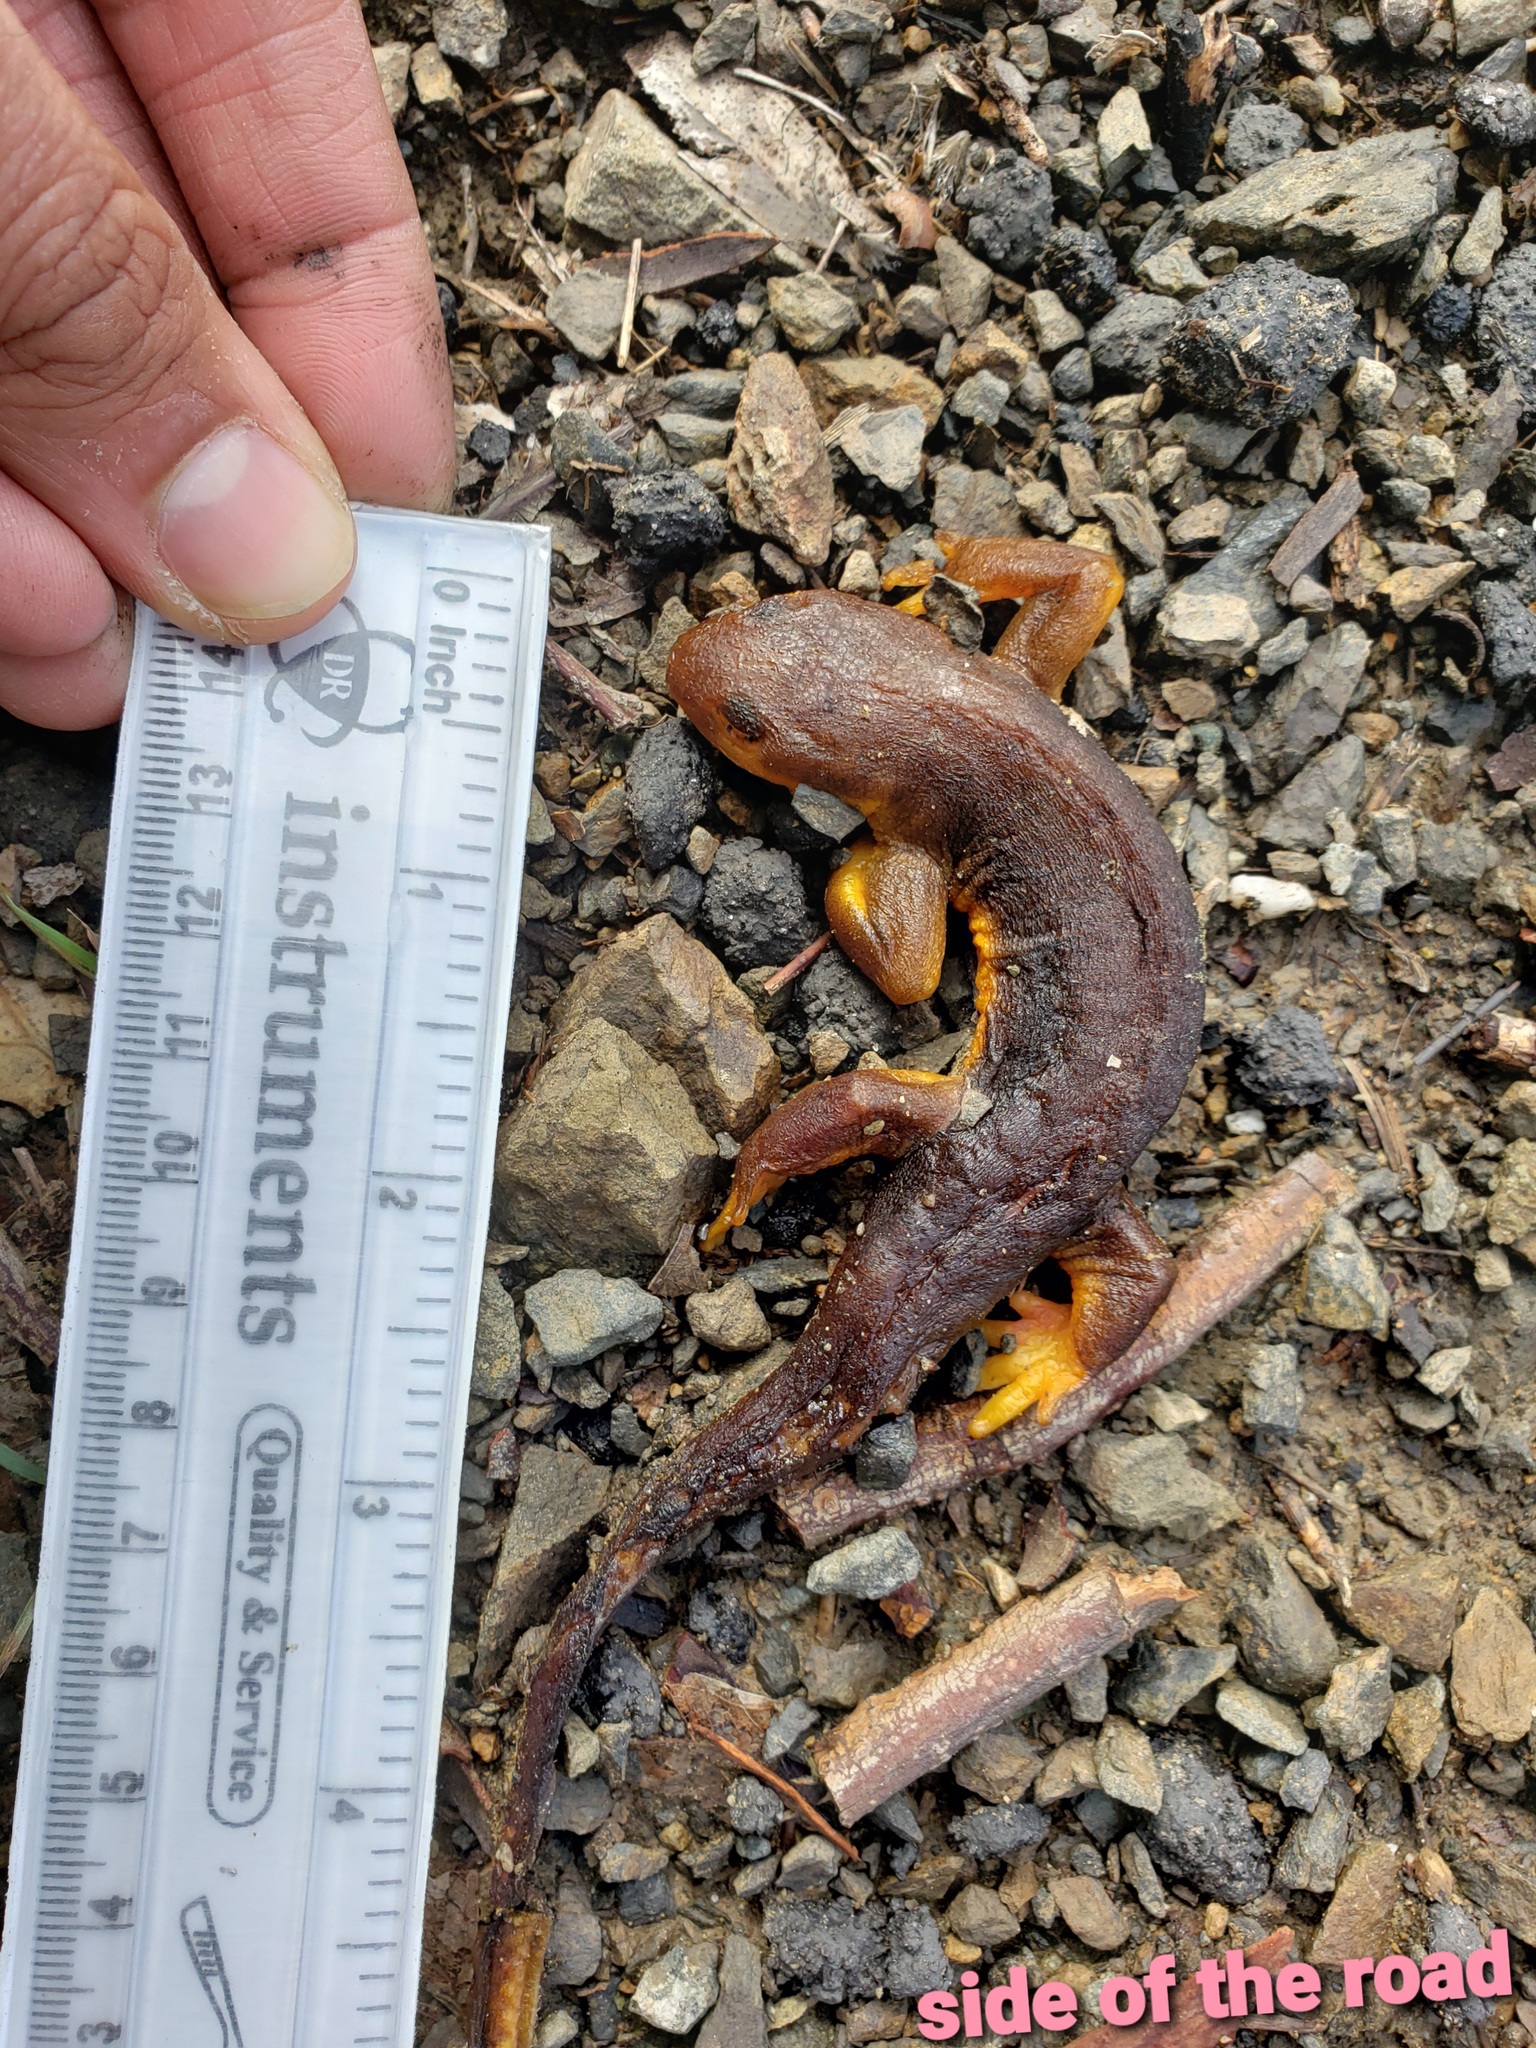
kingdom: Animalia
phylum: Chordata
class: Amphibia
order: Caudata
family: Salamandridae
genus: Taricha
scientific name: Taricha
